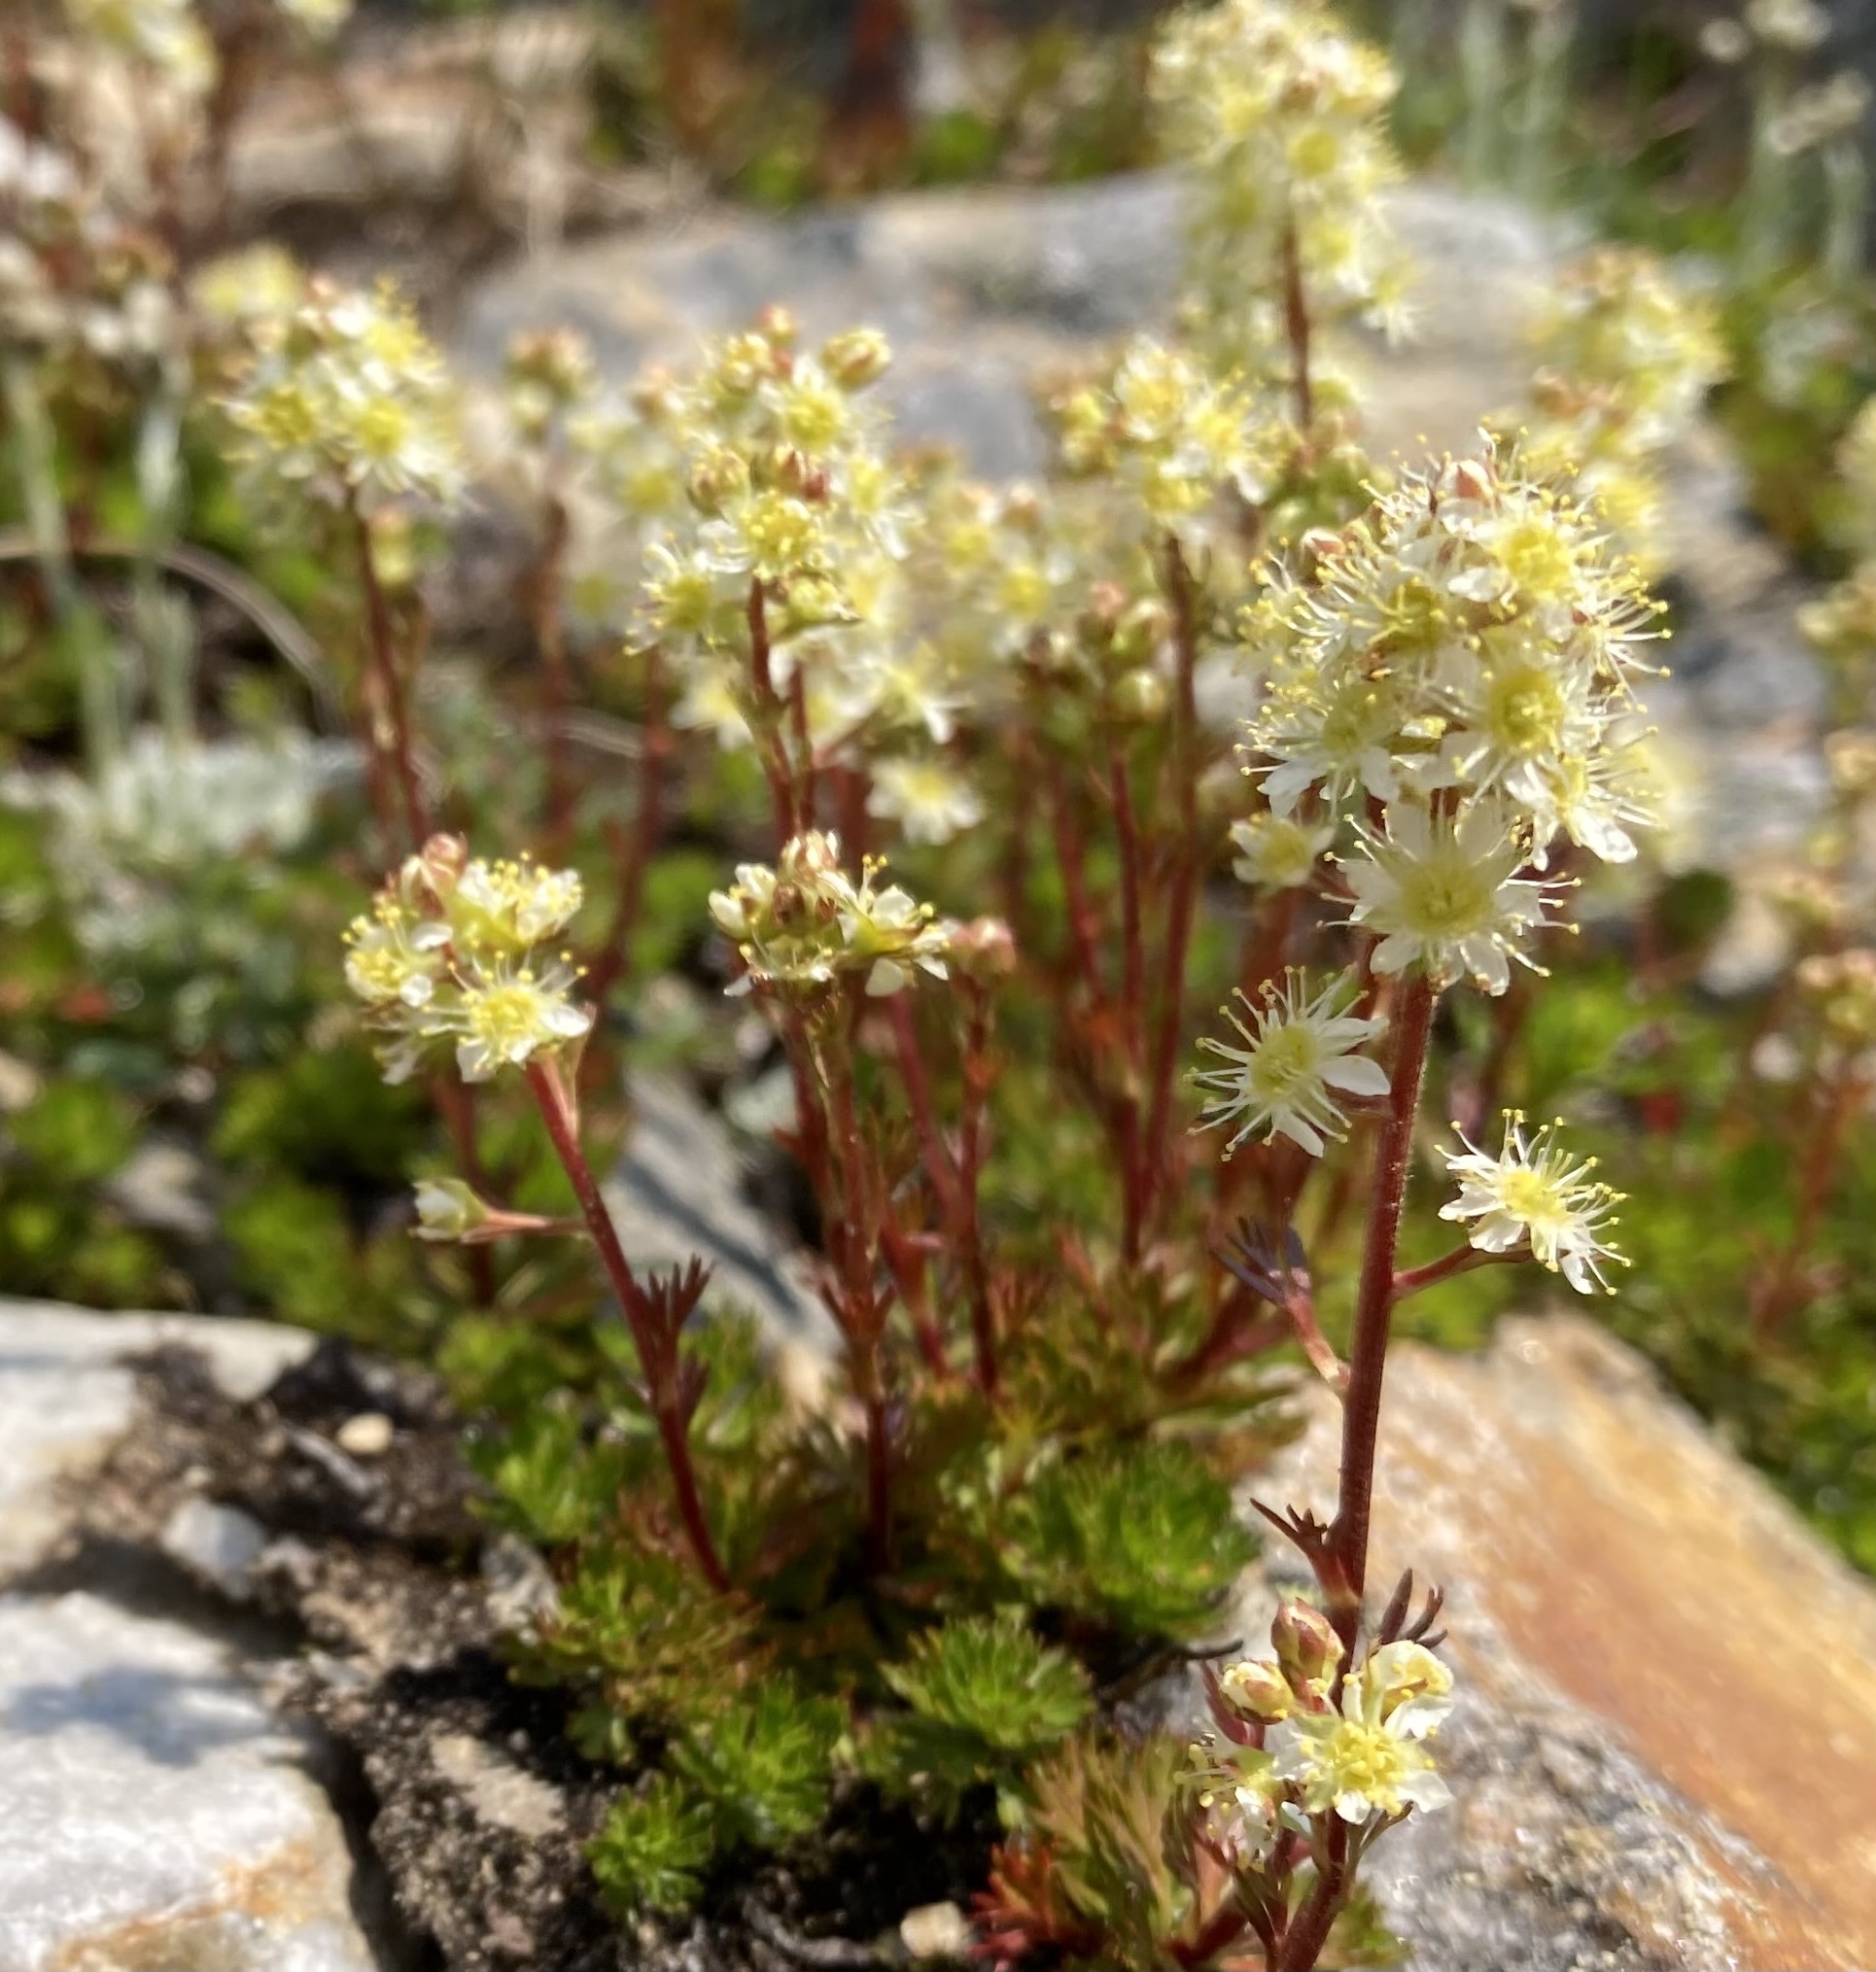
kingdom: Plantae
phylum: Tracheophyta
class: Magnoliopsida
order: Rosales
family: Rosaceae
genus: Luetkea
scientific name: Luetkea pectinata
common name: Partridgefoot
